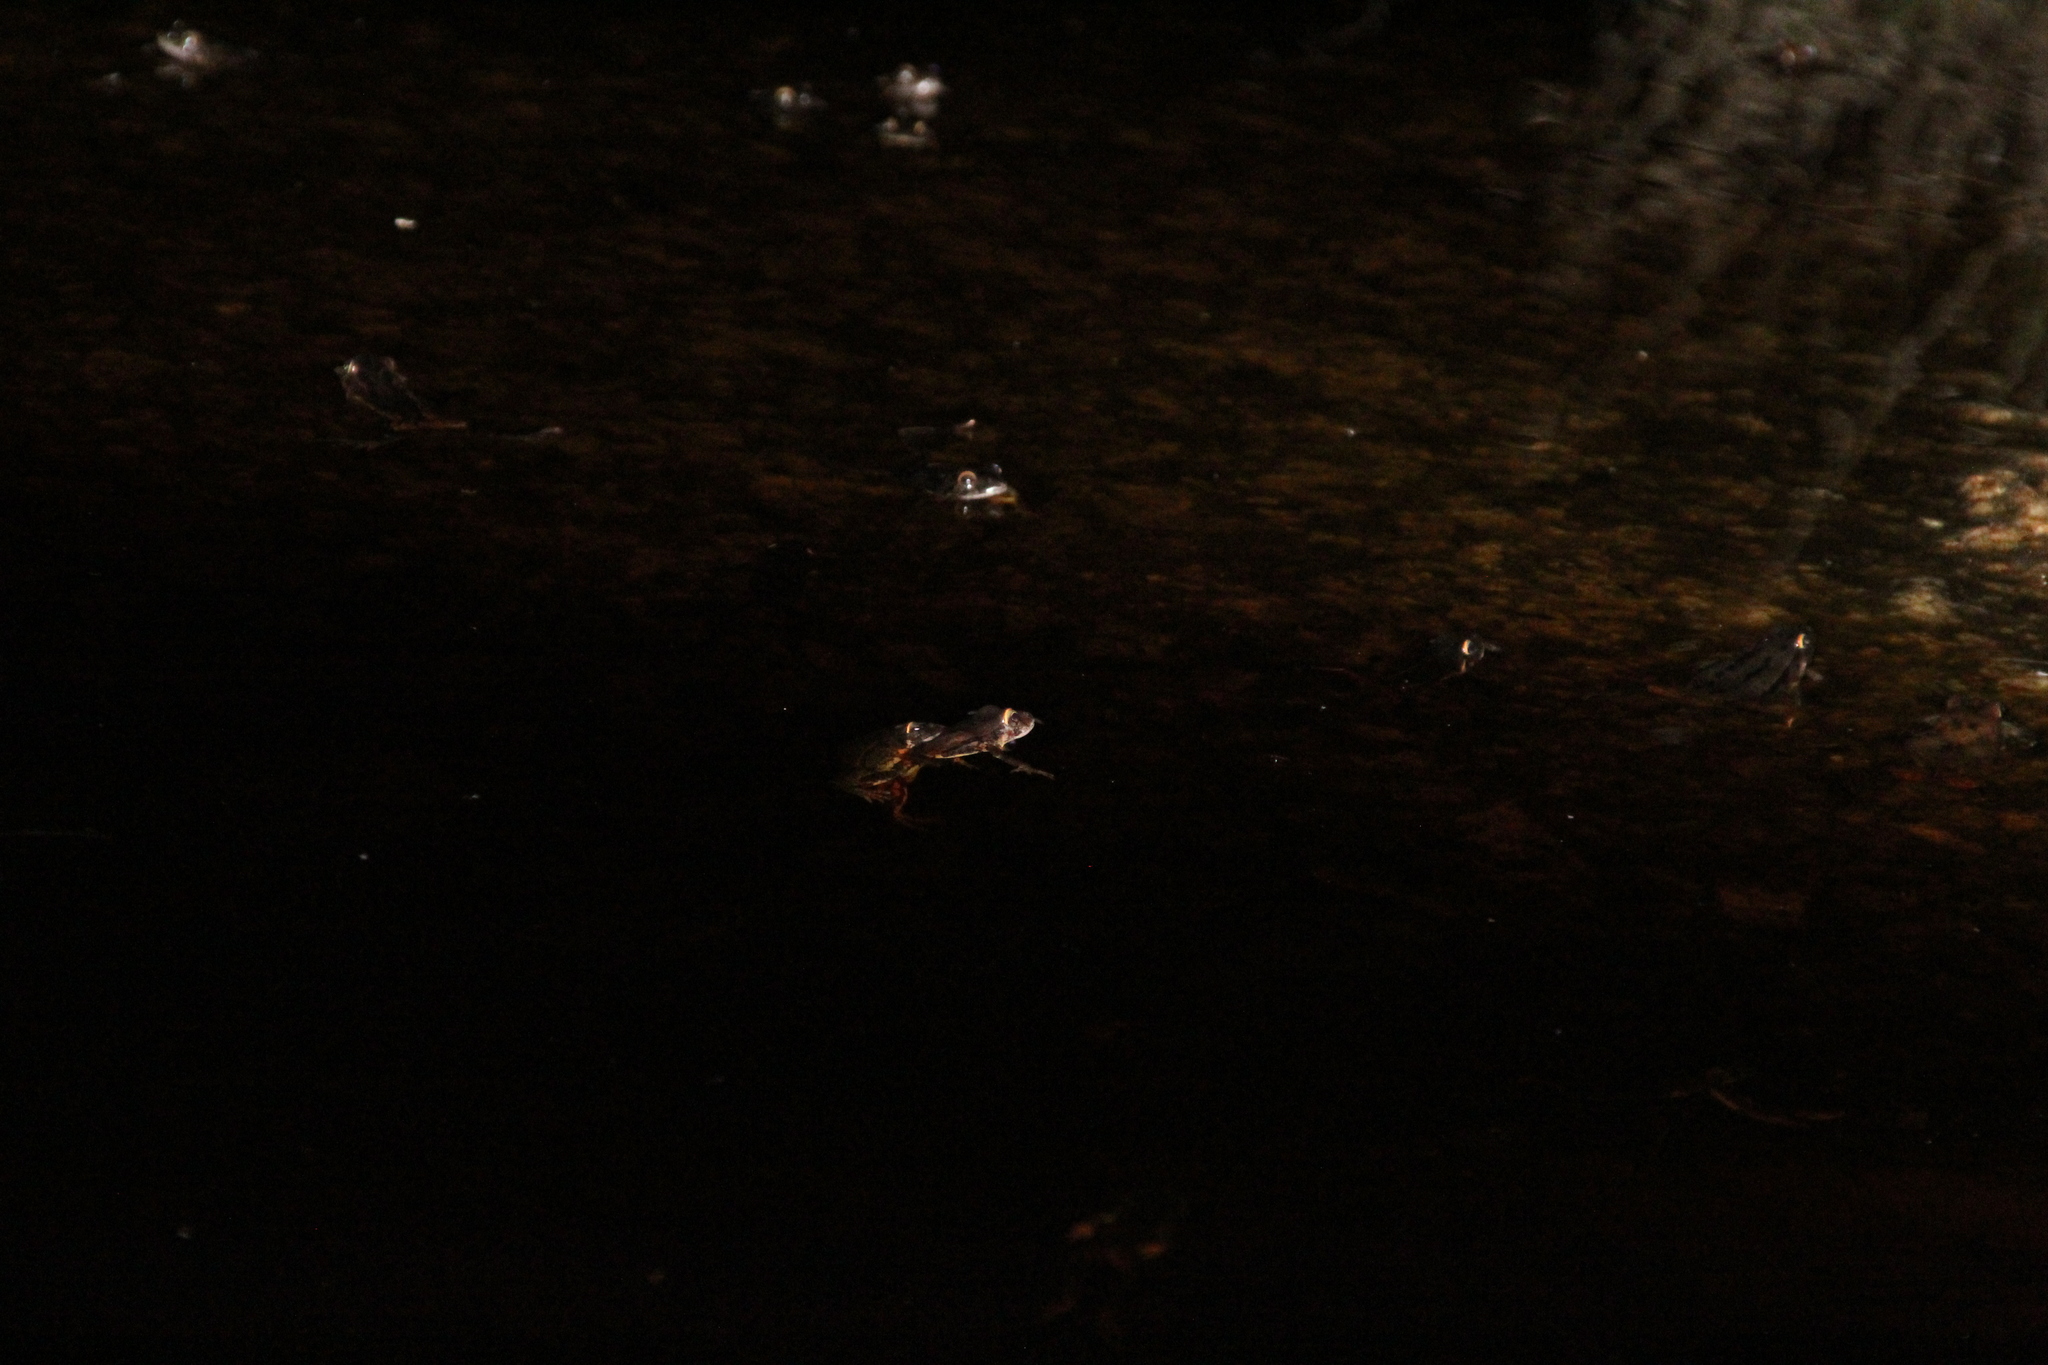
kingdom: Animalia
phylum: Chordata
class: Amphibia
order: Anura
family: Myobatrachidae
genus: Crinia
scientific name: Crinia georgiana
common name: Quacking frog
